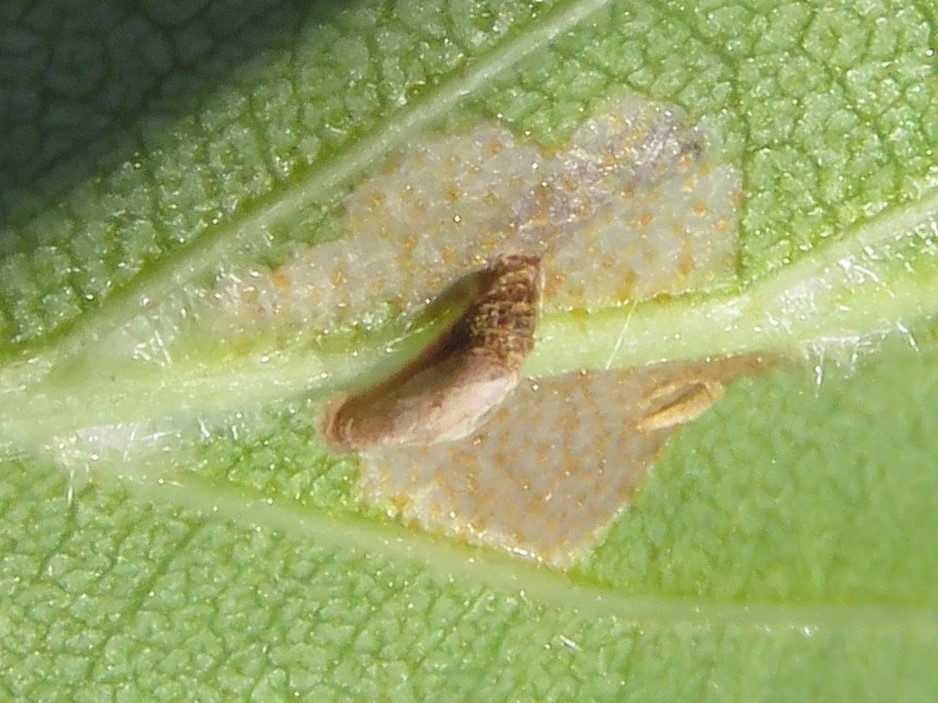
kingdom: Animalia
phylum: Arthropoda
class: Insecta
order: Lepidoptera
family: Coleophoridae
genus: Coleophora
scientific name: Coleophora serratella
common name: Common case-bearer
